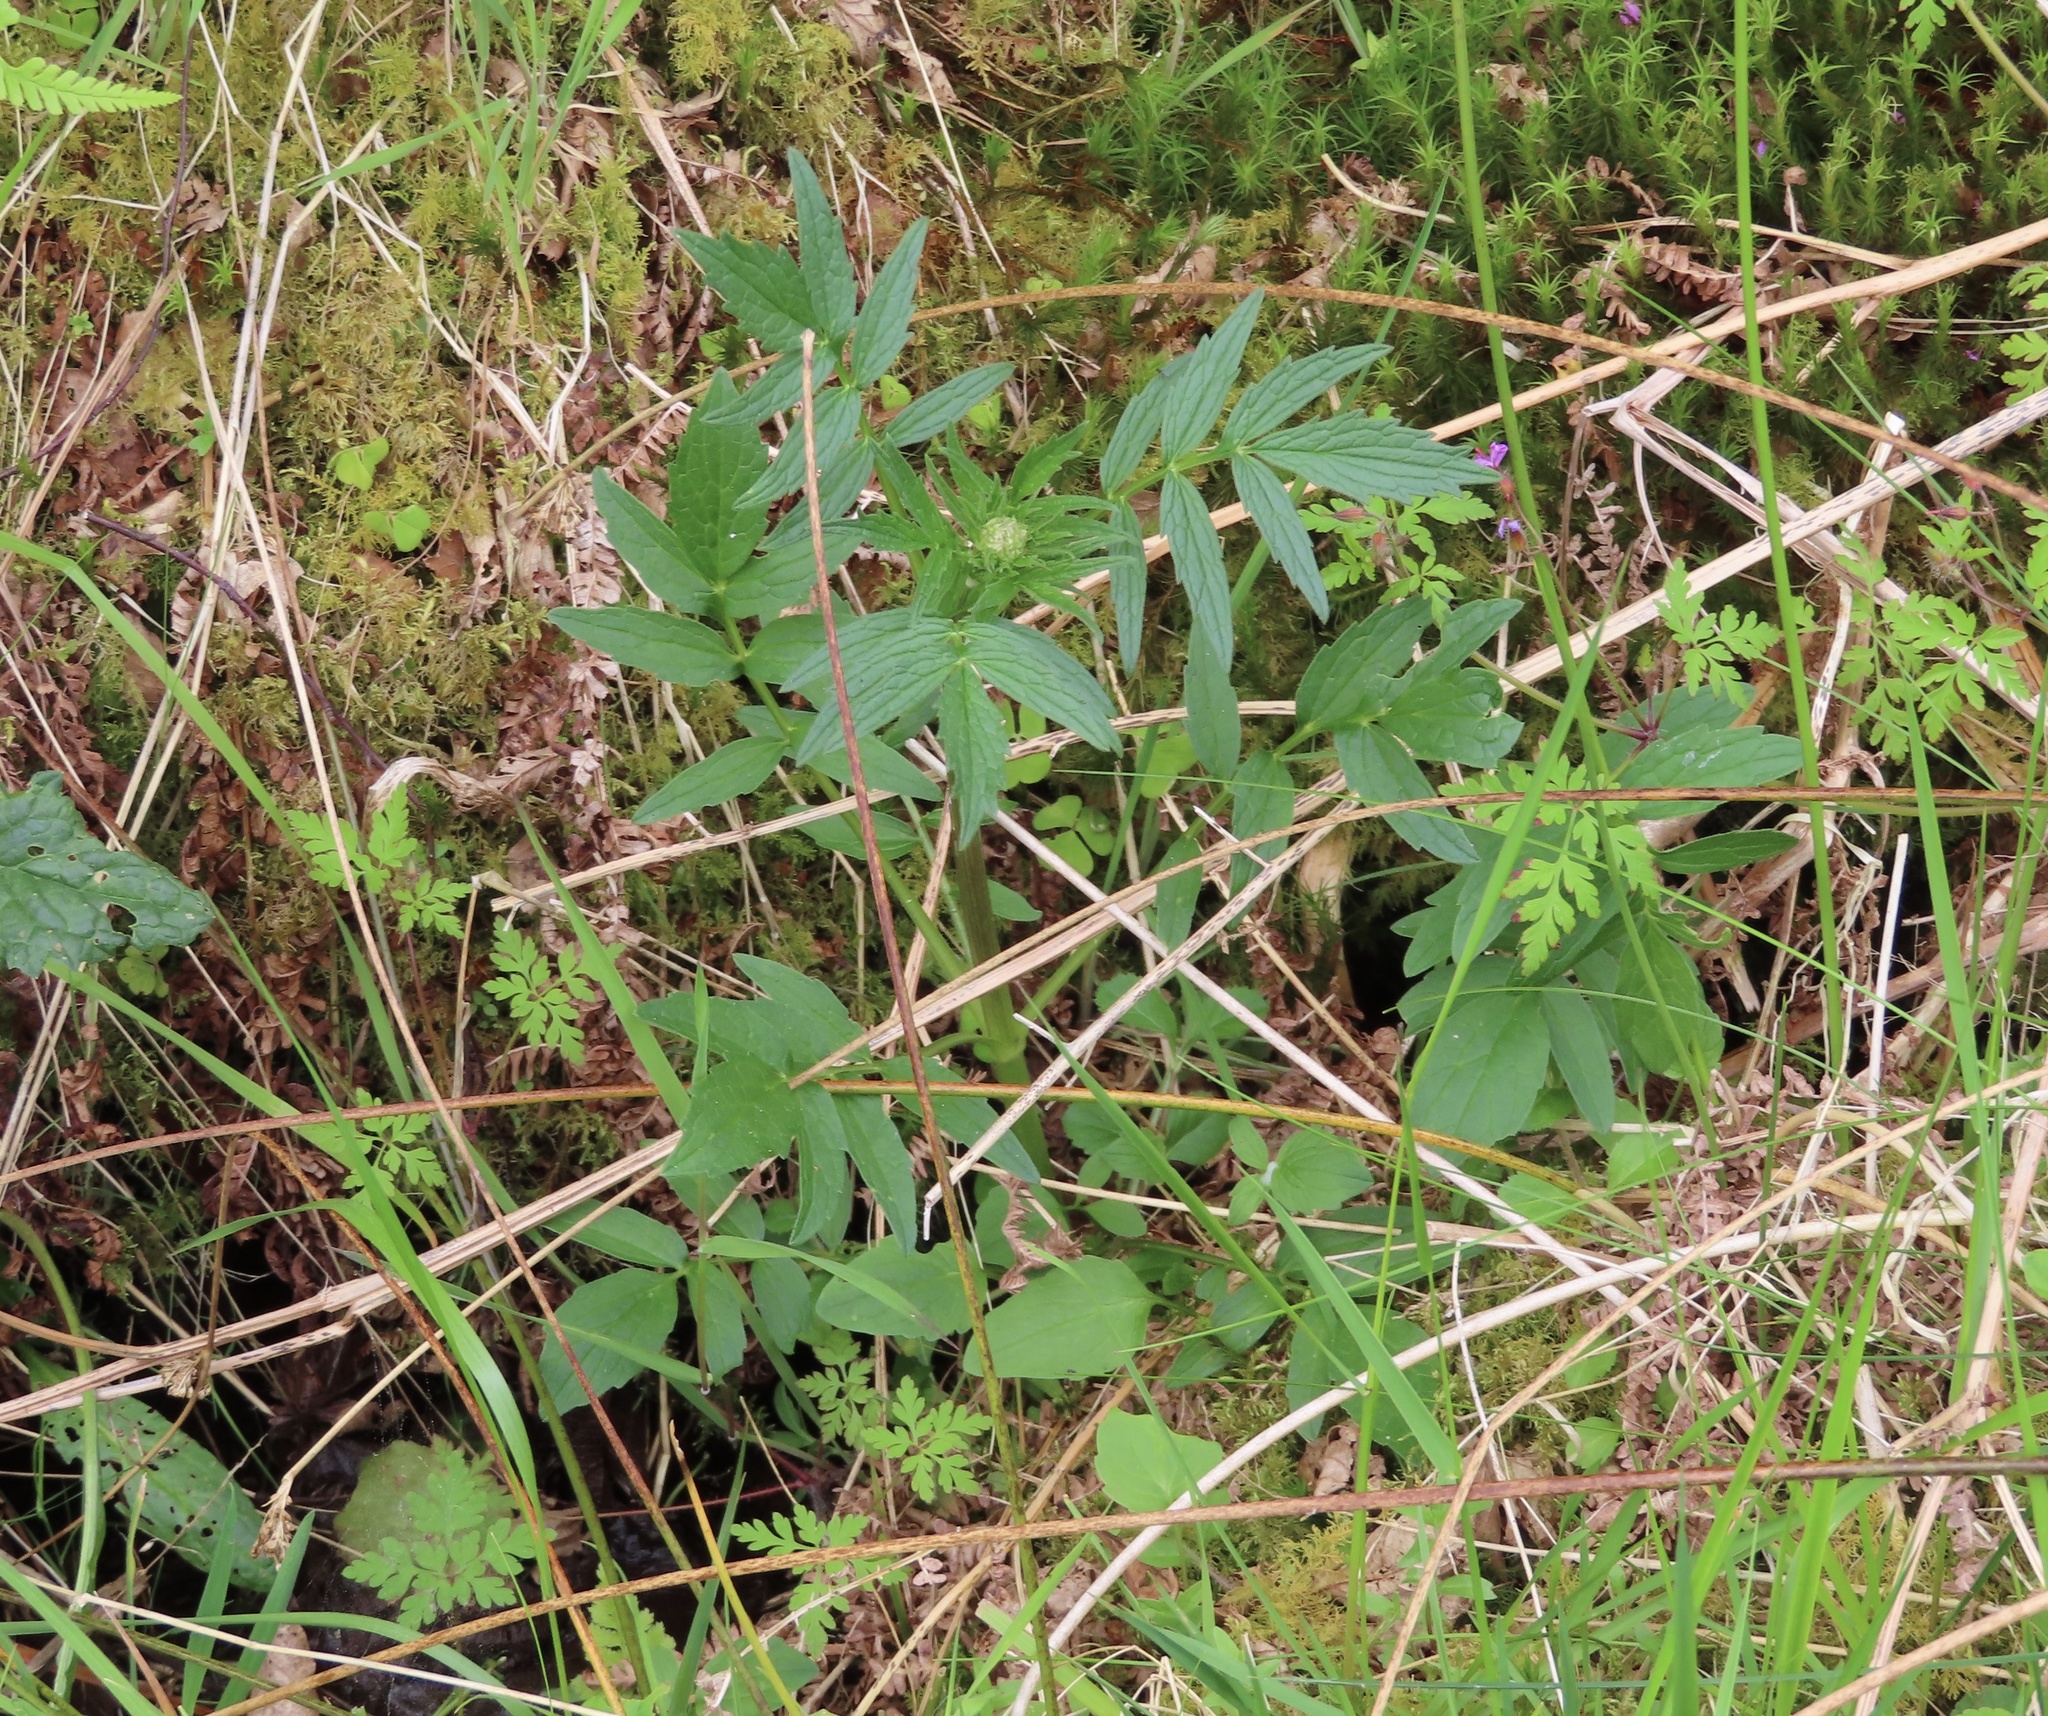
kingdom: Plantae
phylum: Tracheophyta
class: Magnoliopsida
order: Dipsacales
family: Caprifoliaceae
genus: Valeriana
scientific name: Valeriana officinalis
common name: Common valerian
